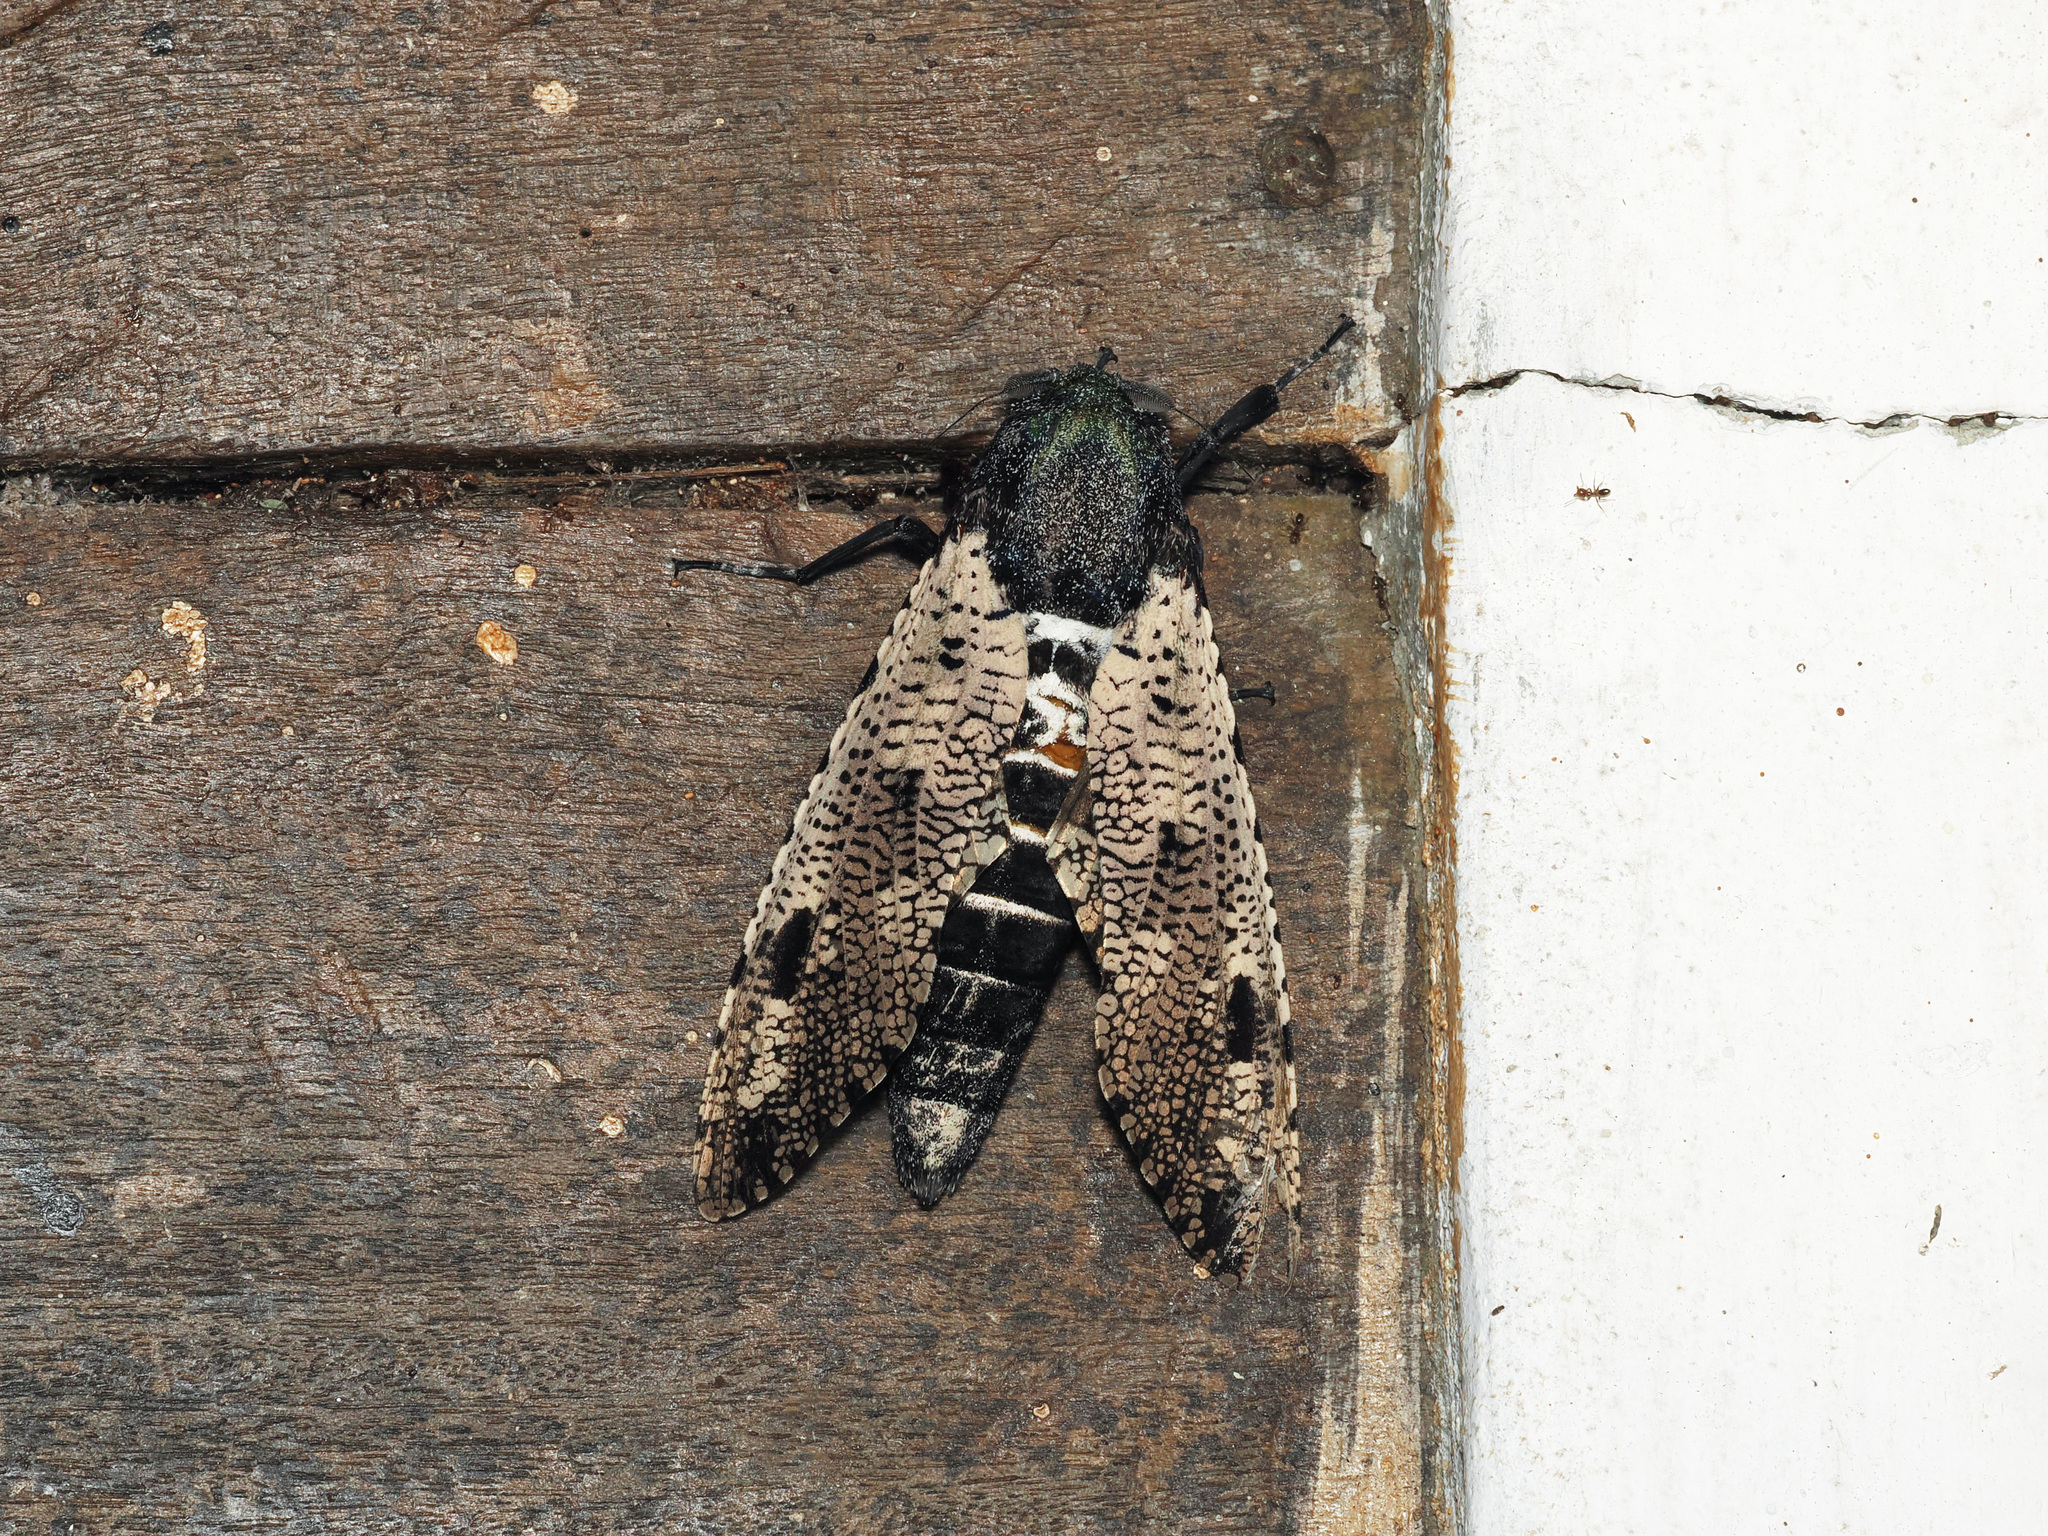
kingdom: Animalia
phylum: Arthropoda
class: Insecta
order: Lepidoptera
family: Cossidae
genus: Xyleutes
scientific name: Xyleutes strix
